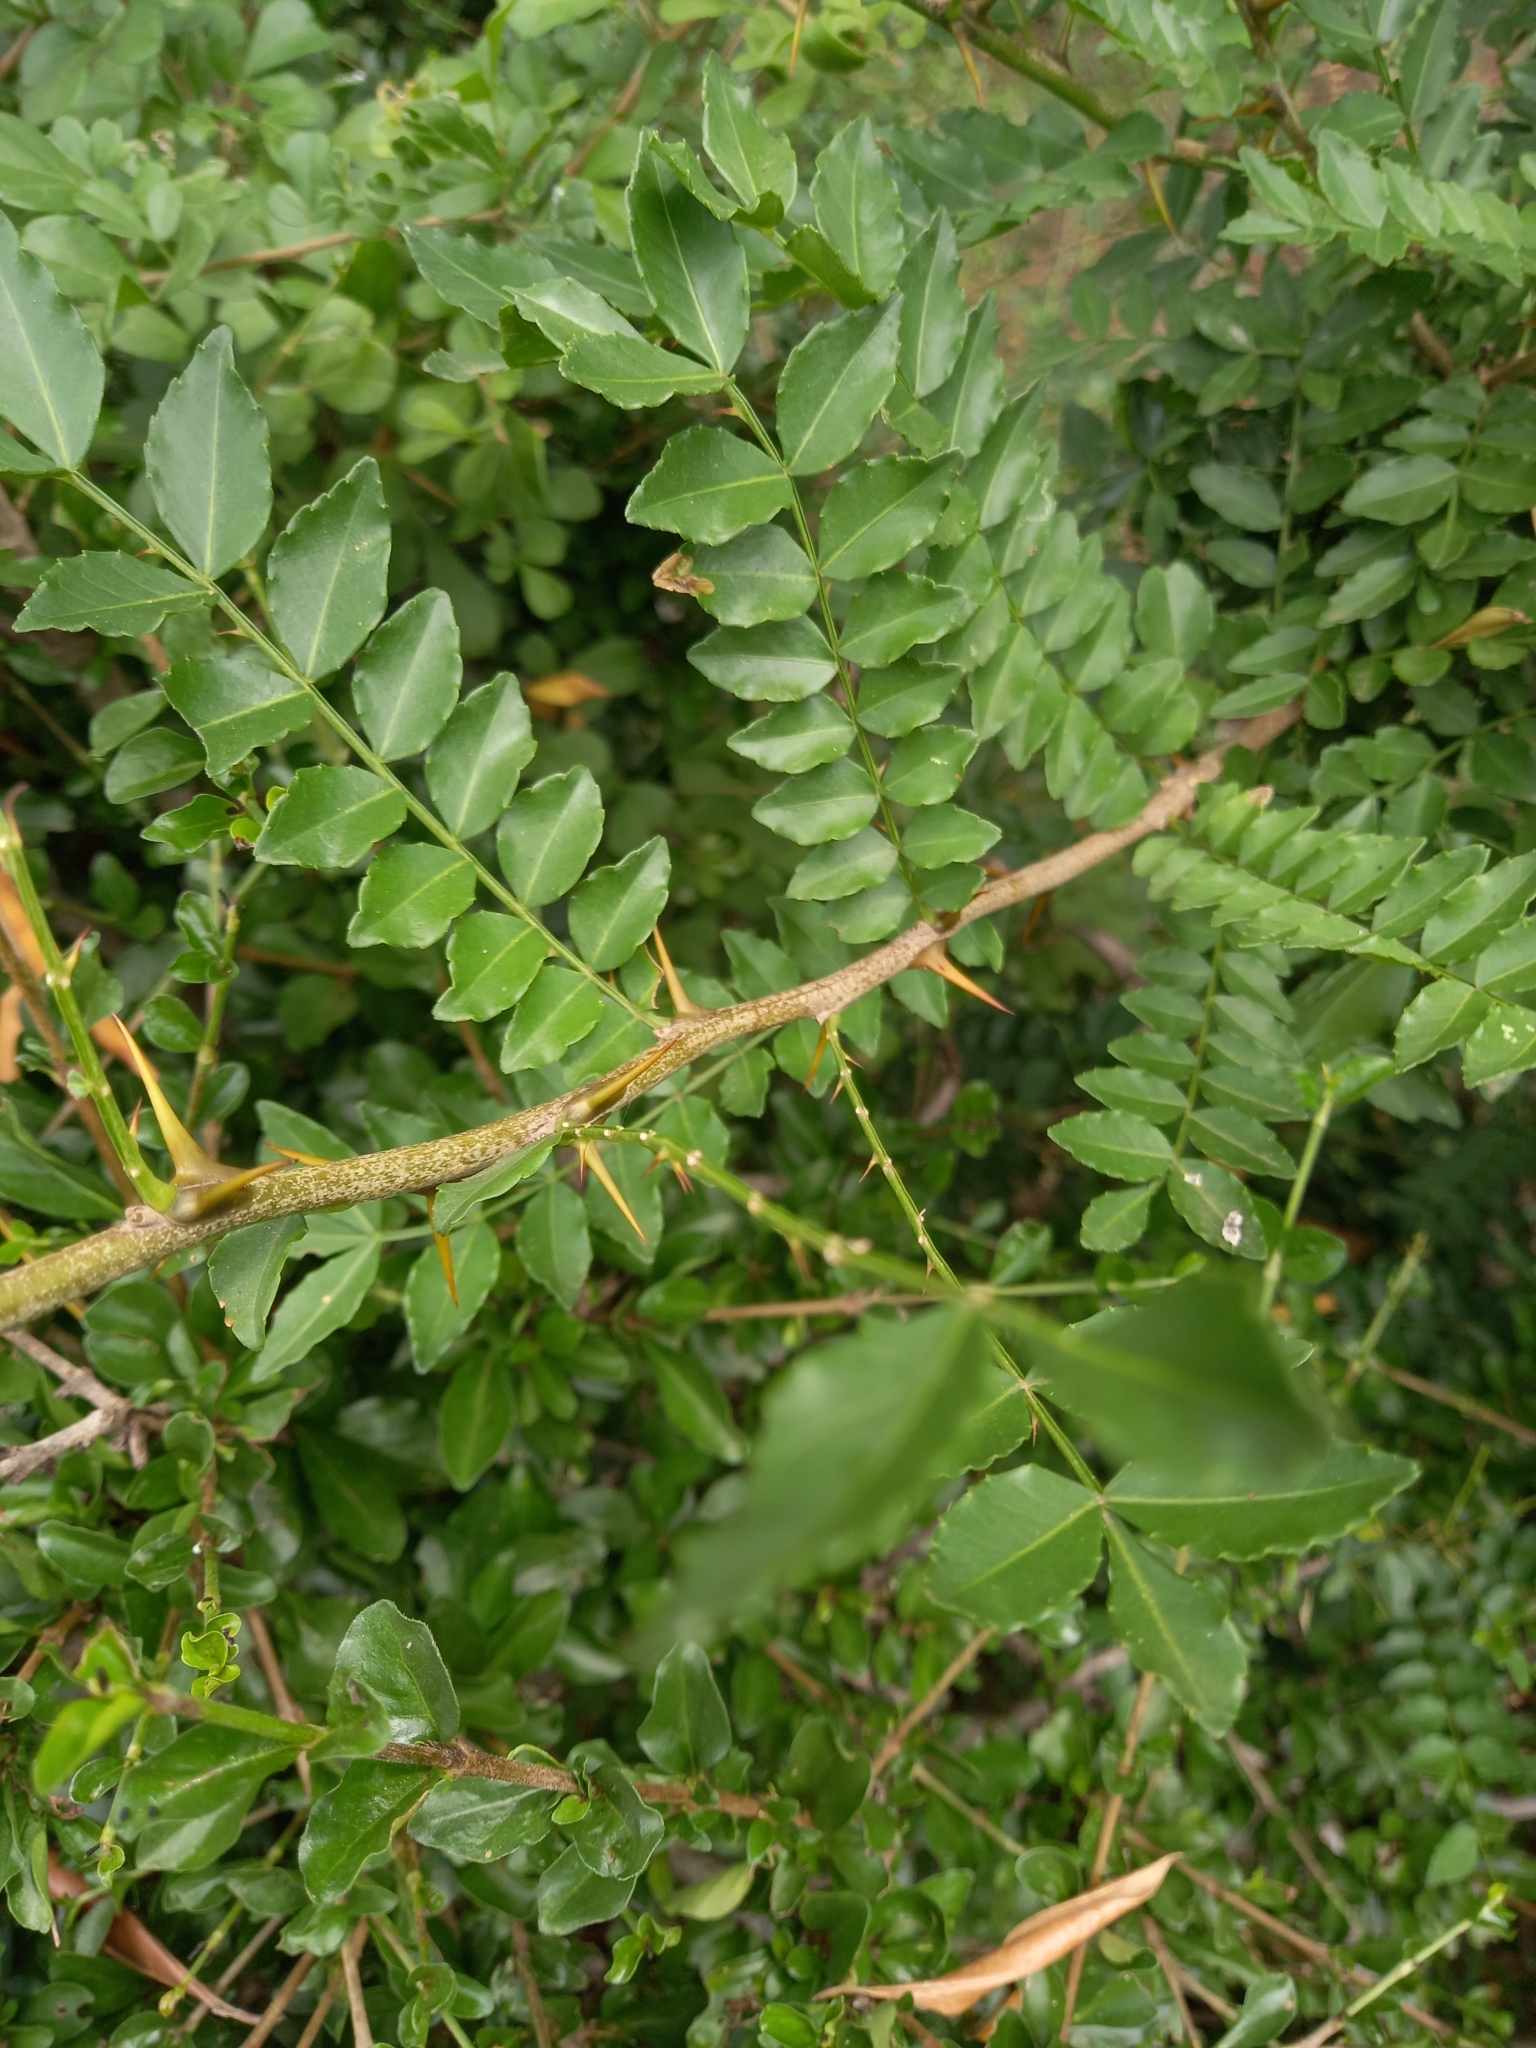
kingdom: Plantae
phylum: Tracheophyta
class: Magnoliopsida
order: Sapindales
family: Rutaceae
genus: Zanthoxylum
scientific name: Zanthoxylum capense
